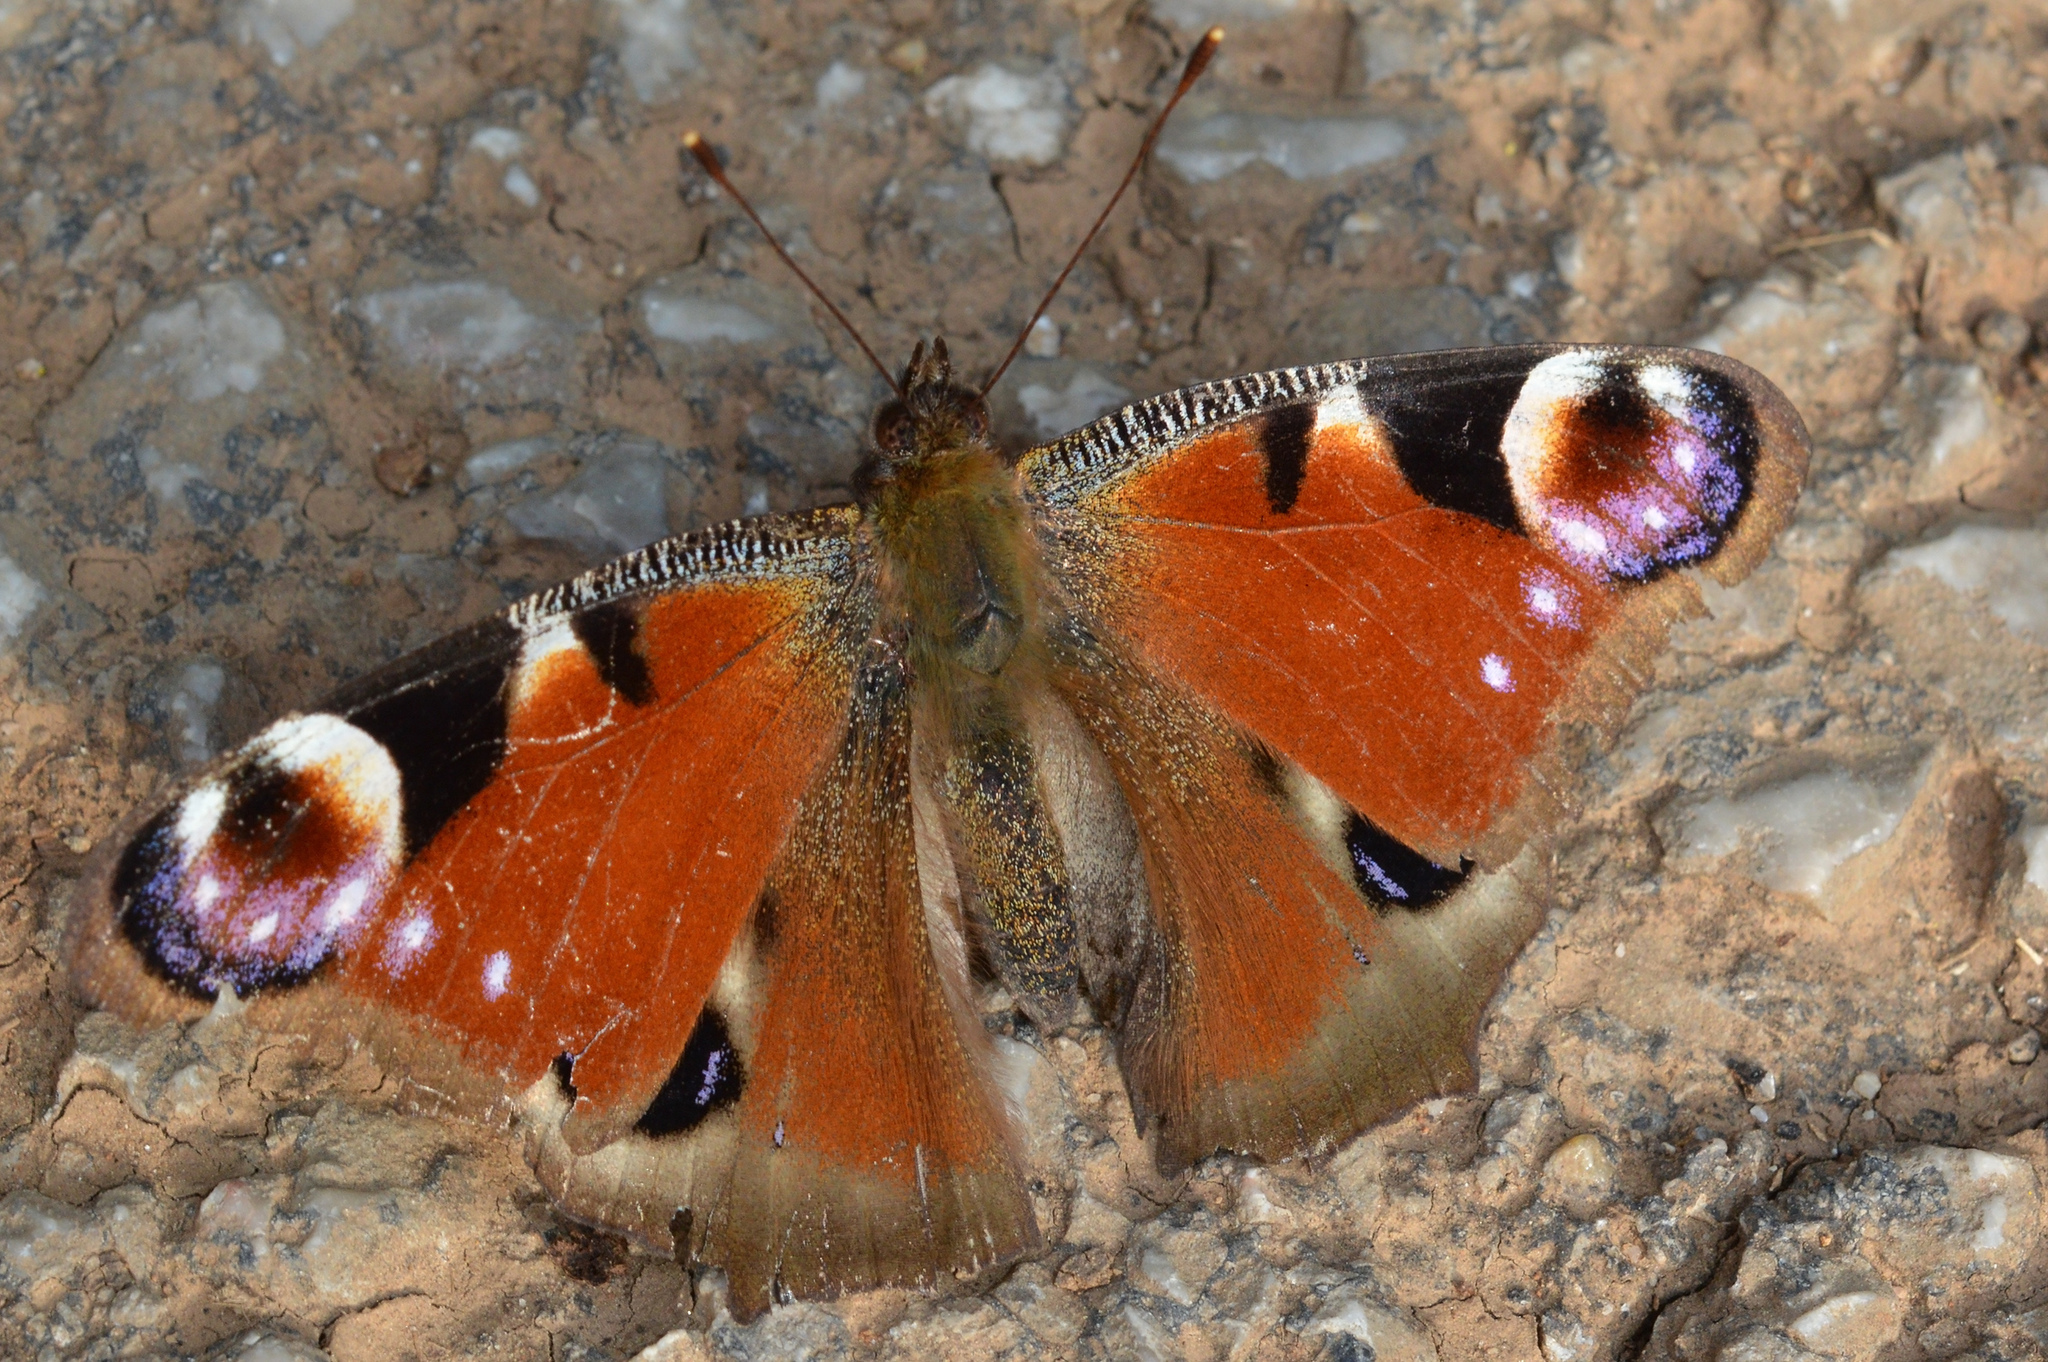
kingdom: Animalia
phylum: Arthropoda
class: Insecta
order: Lepidoptera
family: Nymphalidae
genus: Aglais
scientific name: Aglais io
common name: Peacock
